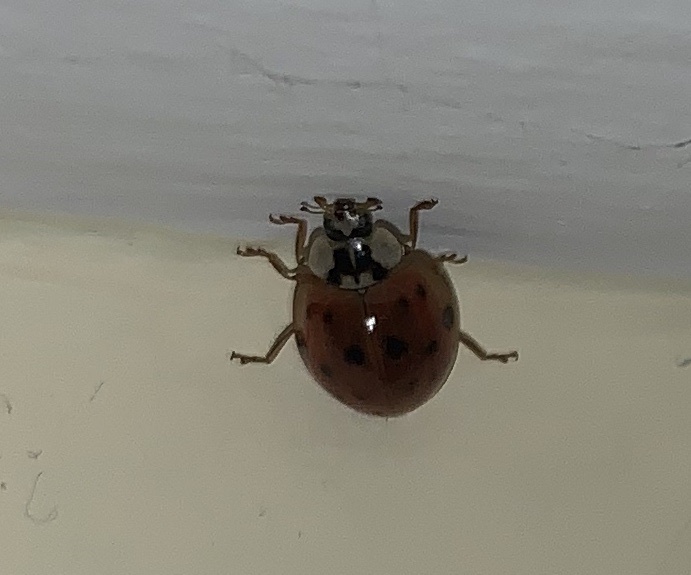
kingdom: Animalia
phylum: Arthropoda
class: Insecta
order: Coleoptera
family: Coccinellidae
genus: Harmonia
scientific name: Harmonia axyridis
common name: Harlequin ladybird
